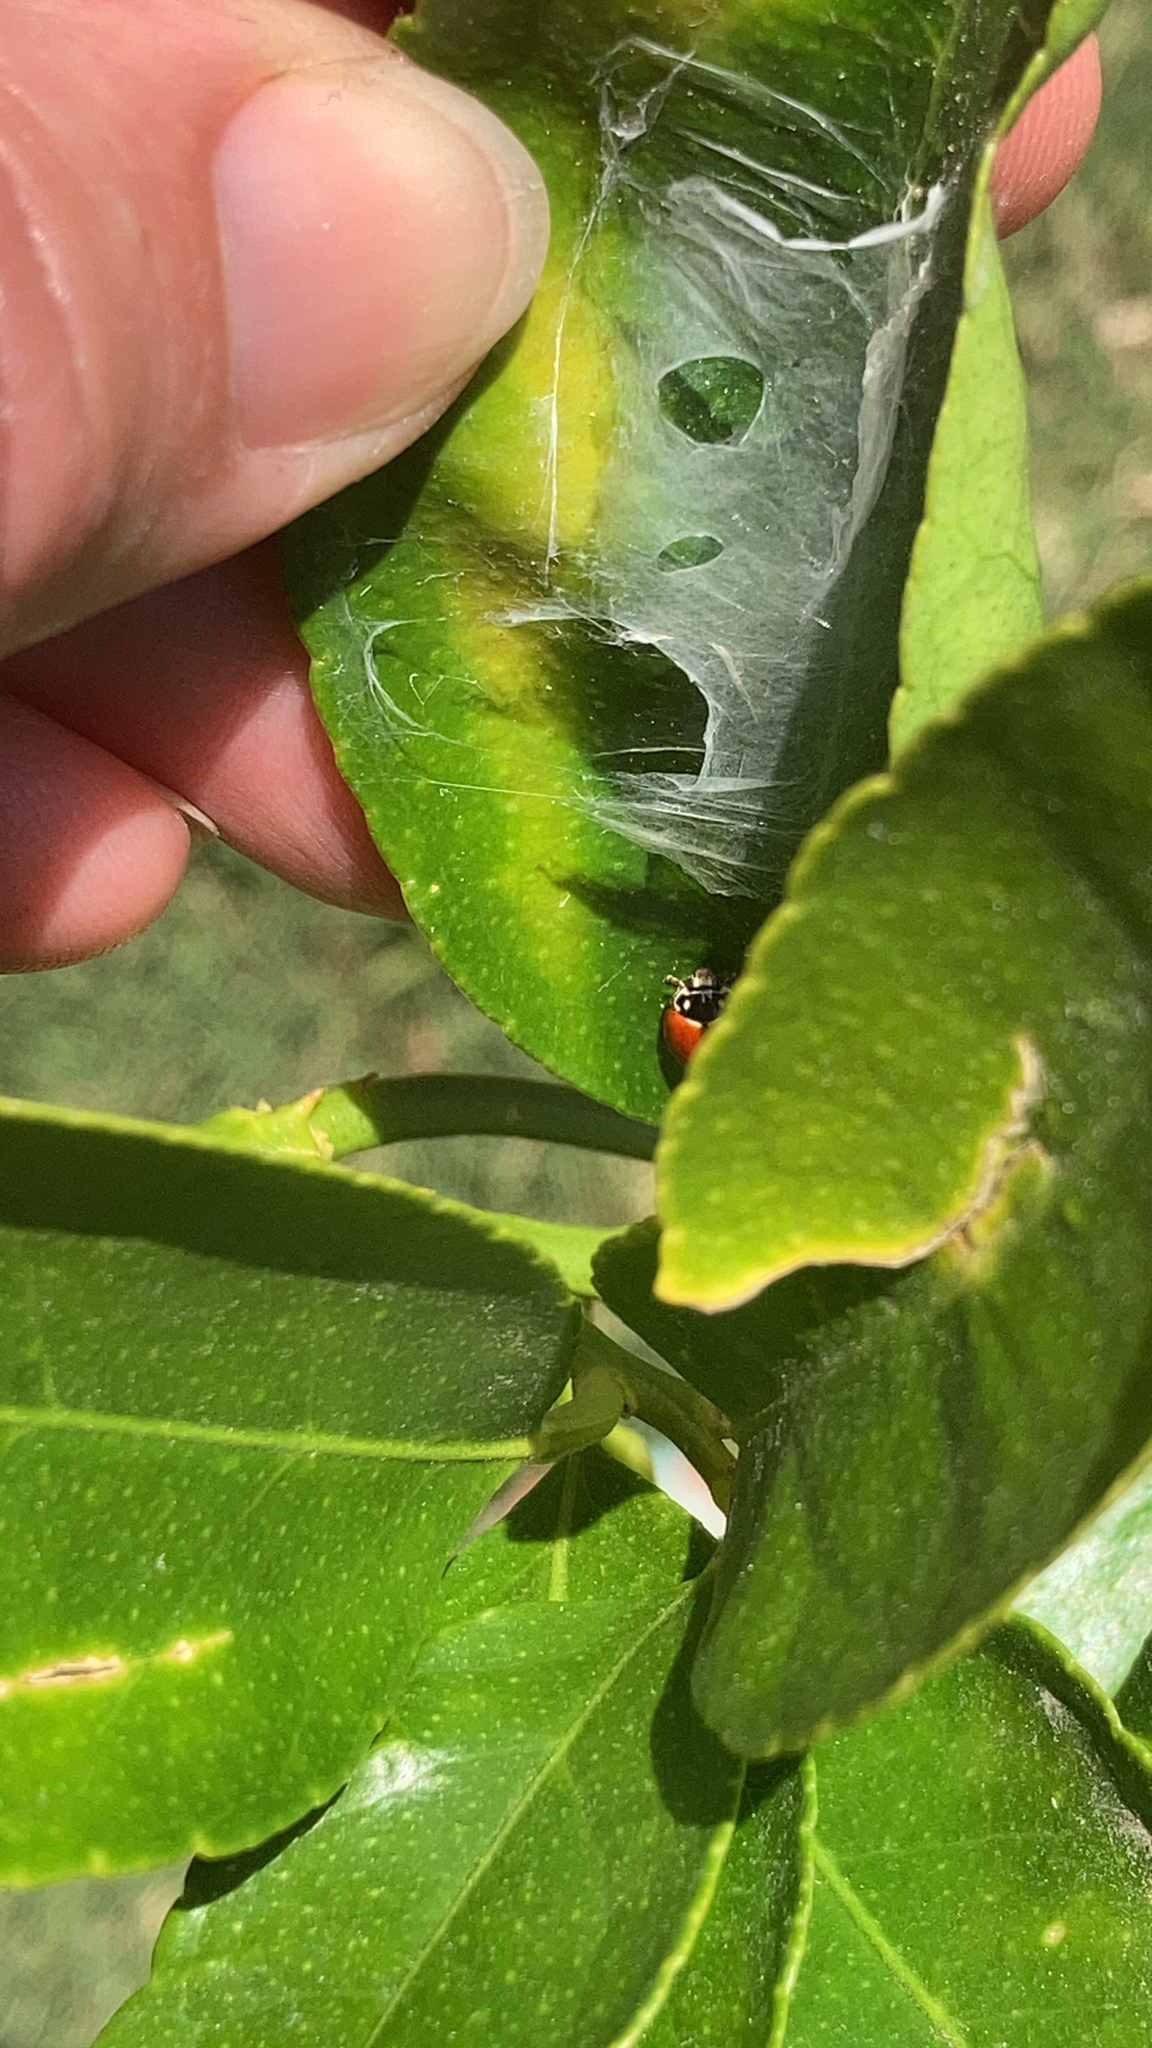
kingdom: Animalia
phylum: Arthropoda
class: Insecta
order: Coleoptera
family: Coccinellidae
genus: Cycloneda
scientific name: Cycloneda sanguinea
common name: Ladybird beetle
